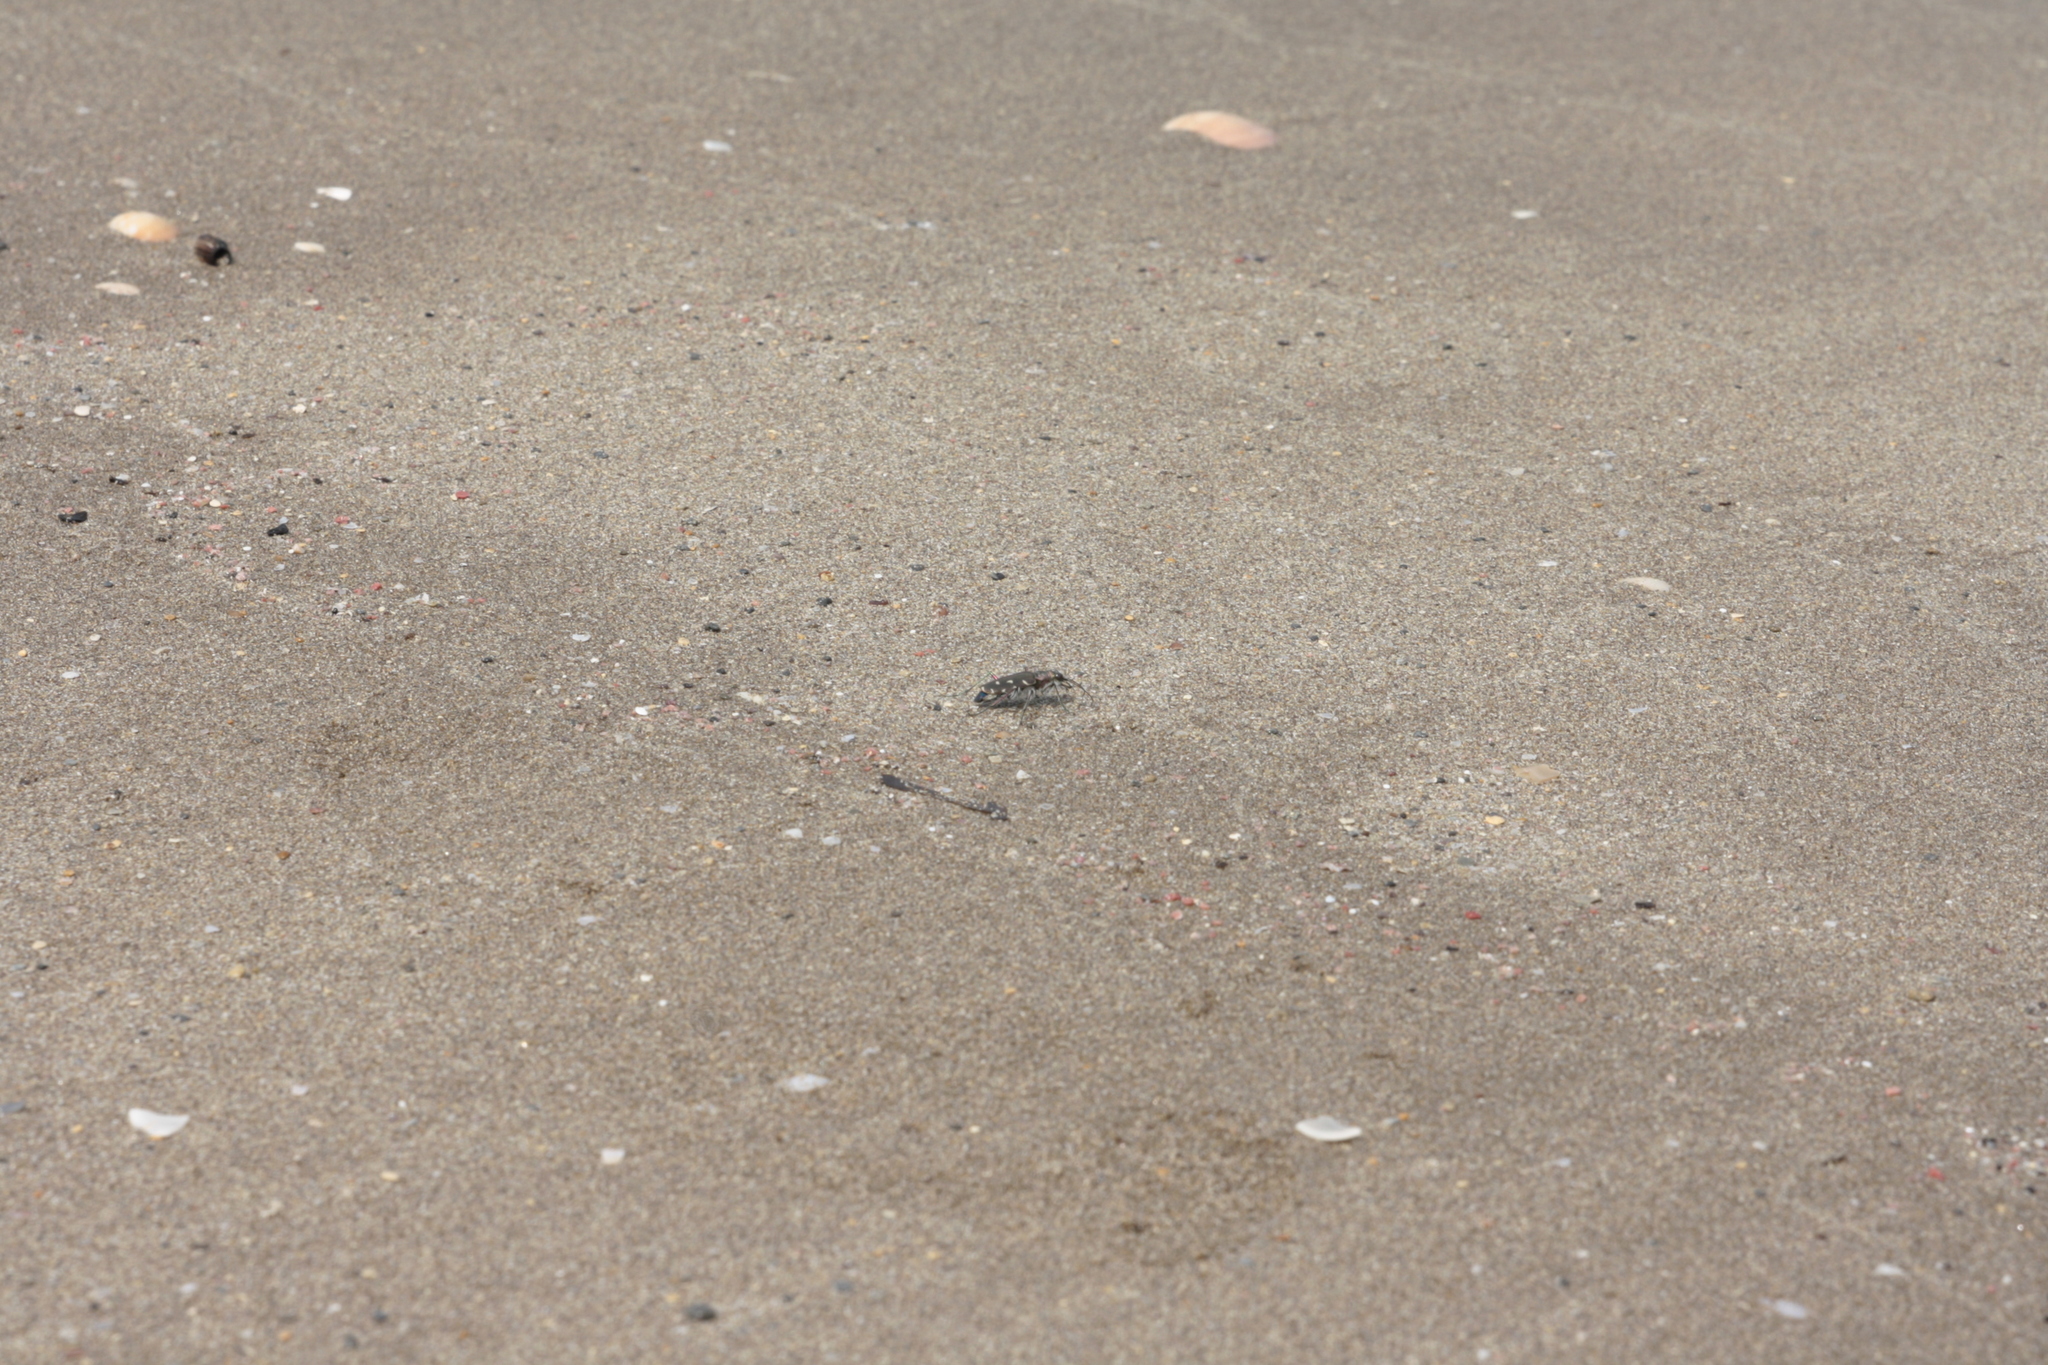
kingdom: Animalia
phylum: Arthropoda
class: Insecta
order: Coleoptera
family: Carabidae
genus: Cicindela
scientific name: Cicindela littoralis
